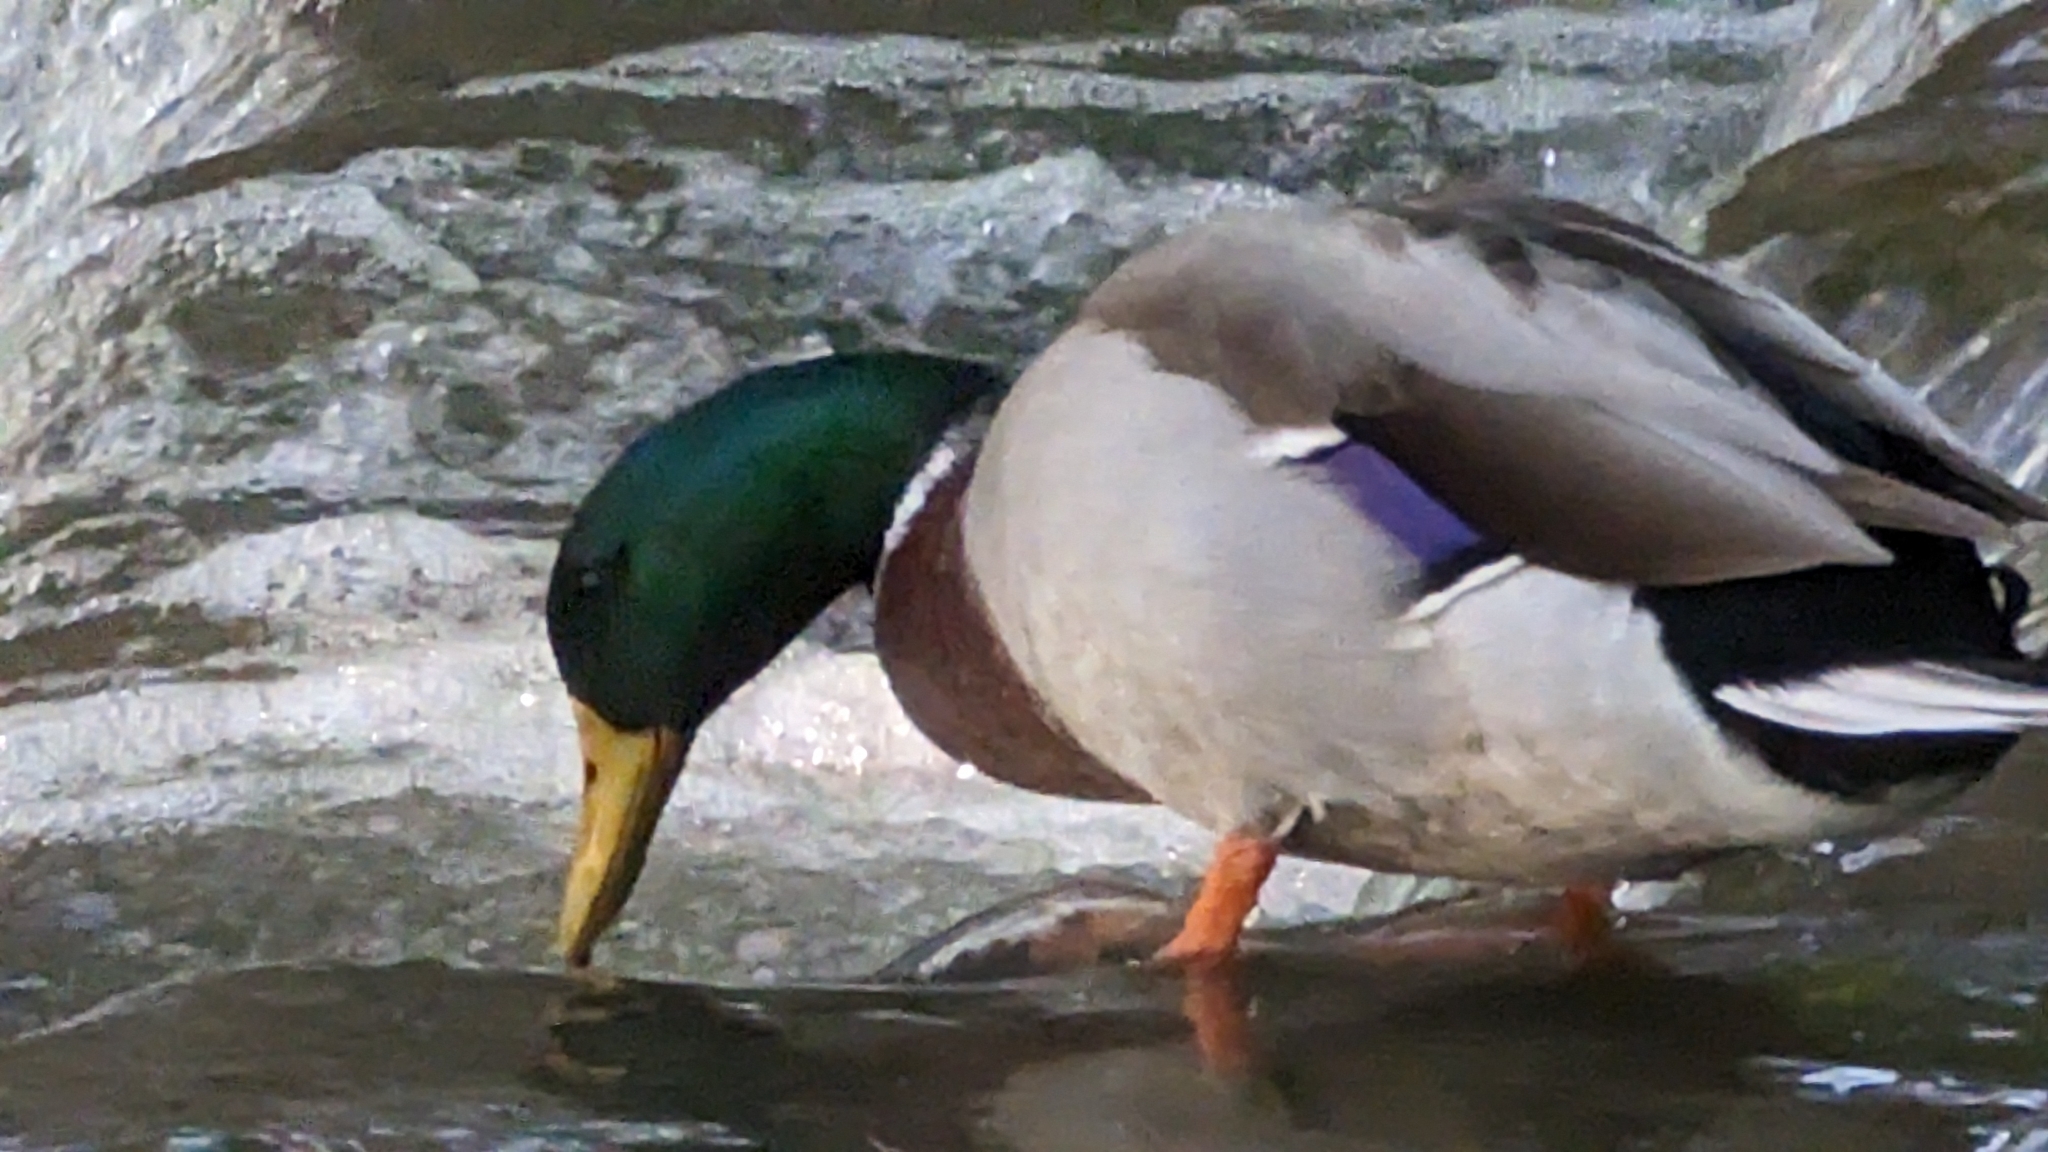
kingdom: Animalia
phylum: Chordata
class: Aves
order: Anseriformes
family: Anatidae
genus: Anas
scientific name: Anas platyrhynchos
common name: Mallard
